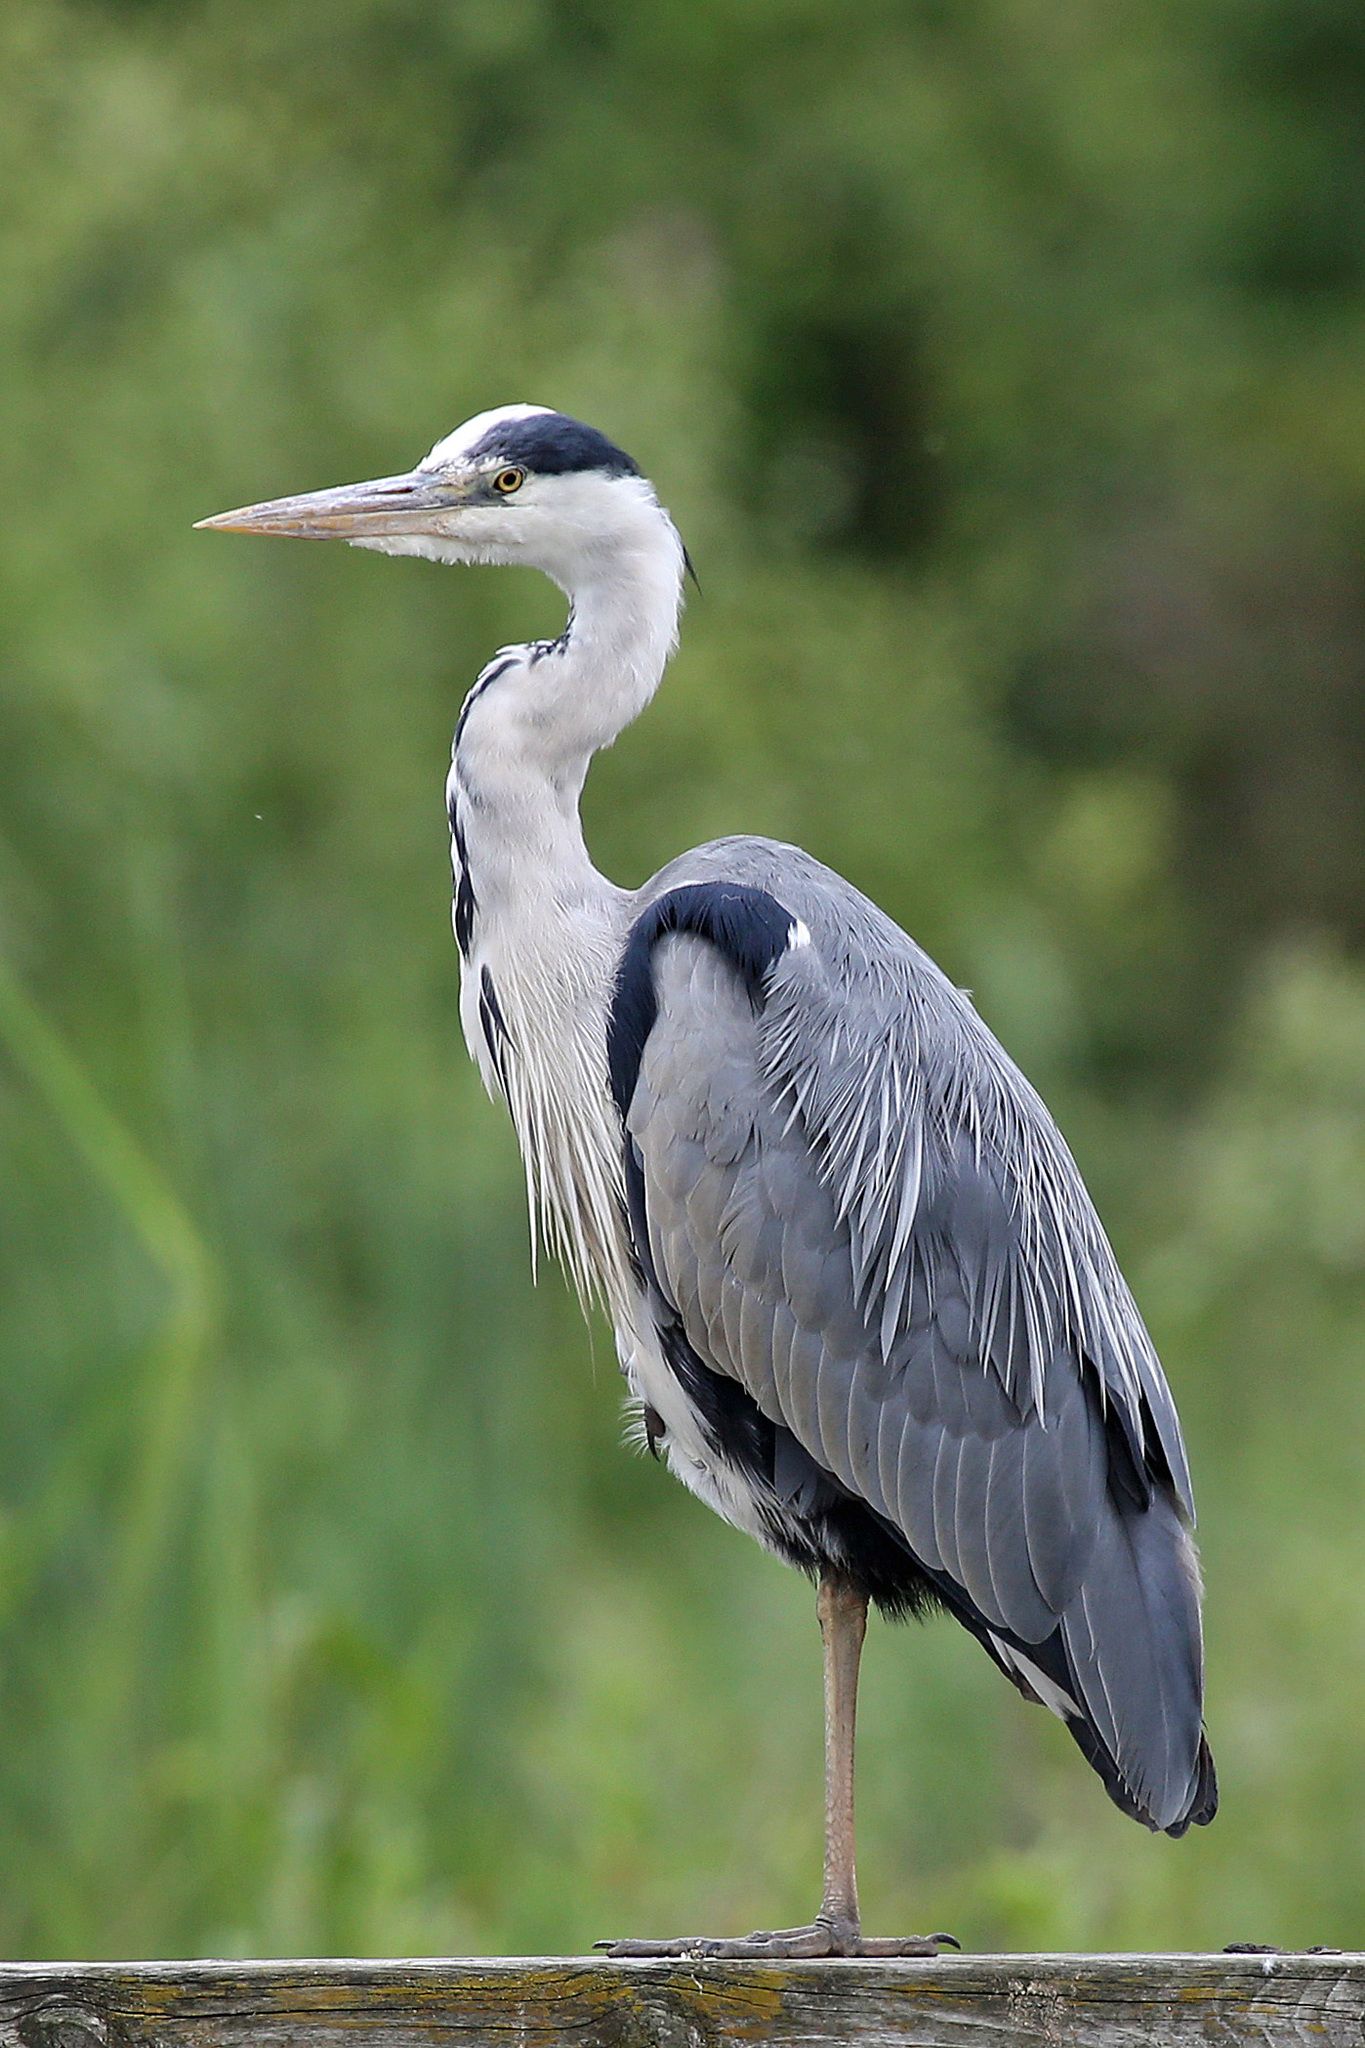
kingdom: Animalia
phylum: Chordata
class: Aves
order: Pelecaniformes
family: Ardeidae
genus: Ardea
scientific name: Ardea cinerea
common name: Grey heron
